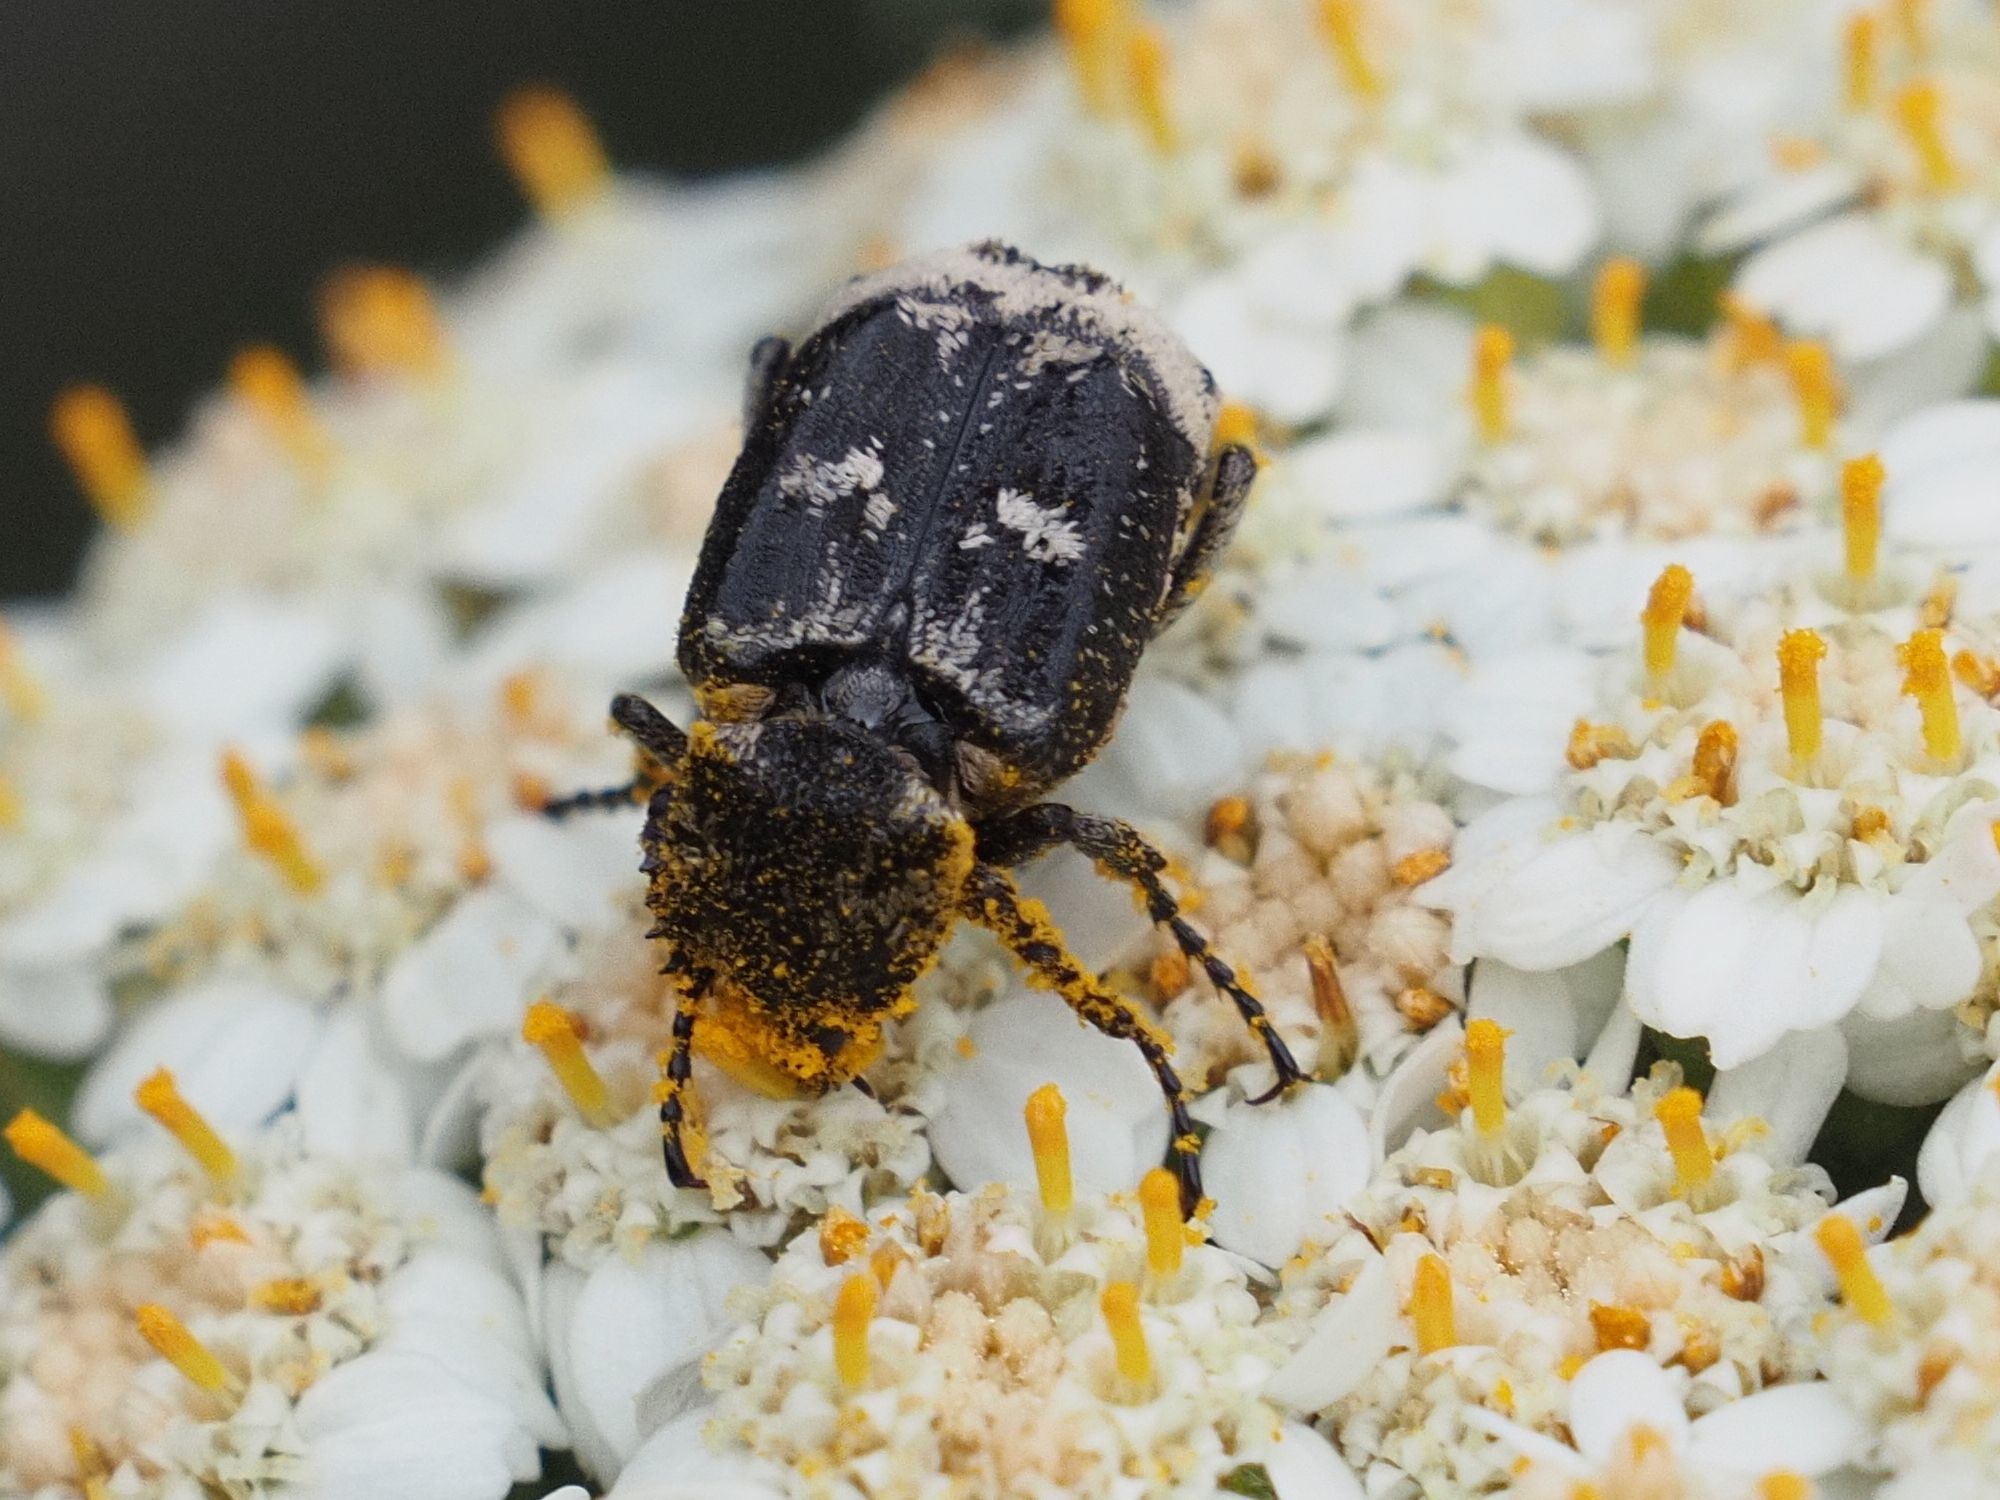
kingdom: Animalia
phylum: Arthropoda
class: Insecta
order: Coleoptera
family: Scarabaeidae
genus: Valgus
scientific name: Valgus hemipterus
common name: Bug flower chafer
